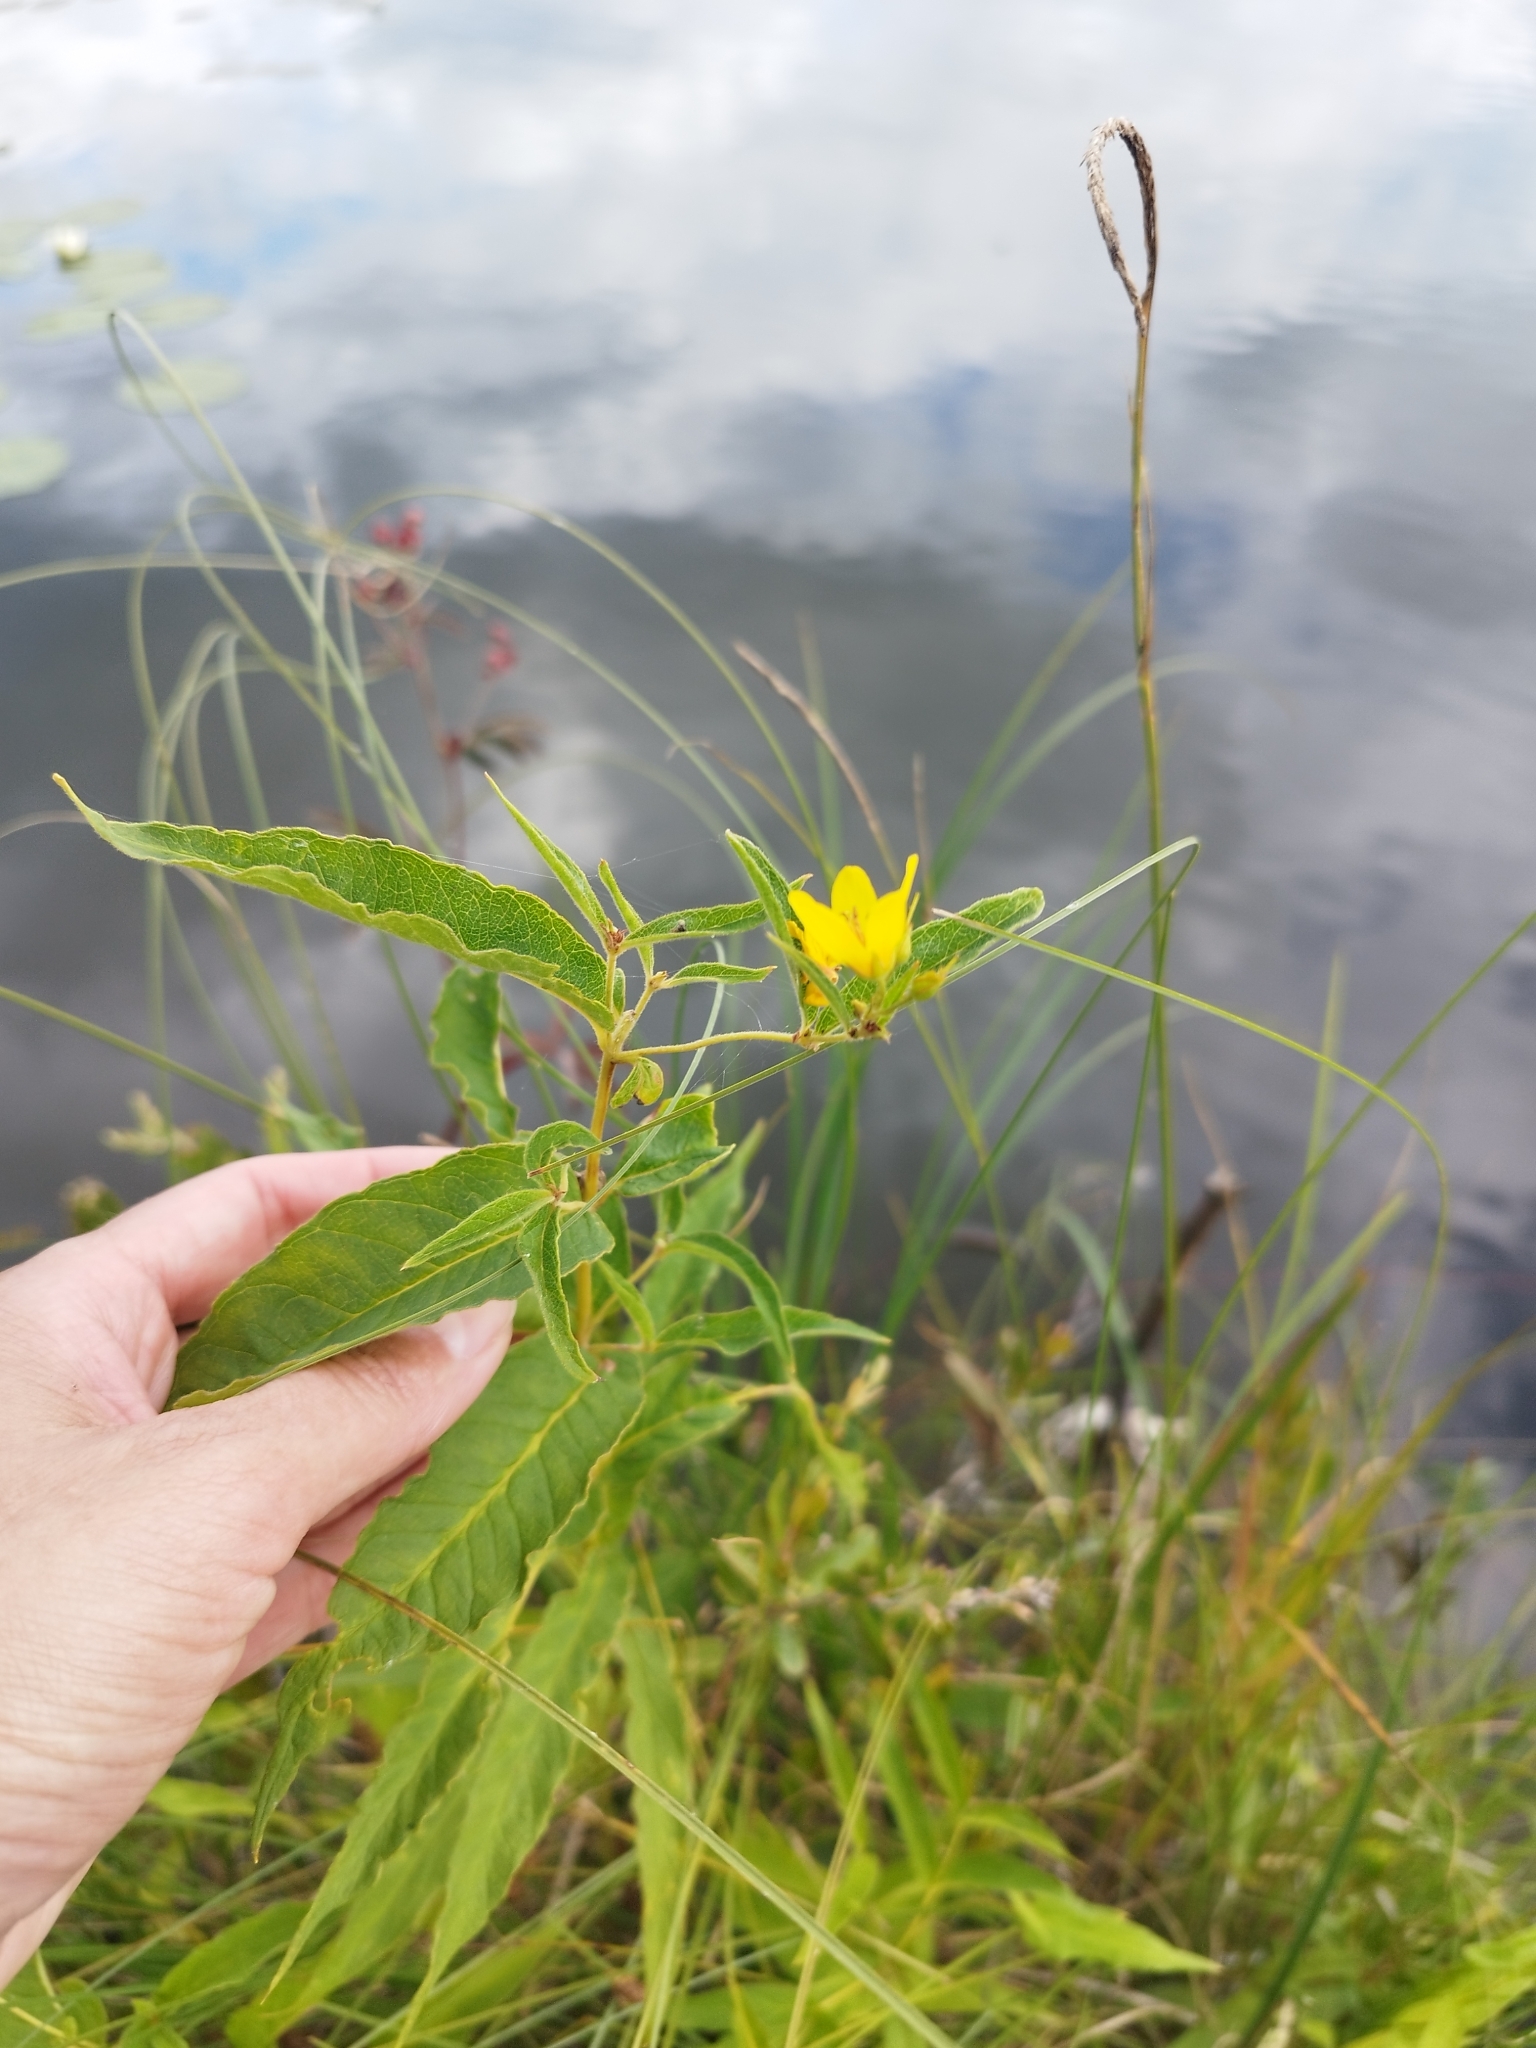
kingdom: Plantae
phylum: Tracheophyta
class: Magnoliopsida
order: Ericales
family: Primulaceae
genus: Lysimachia
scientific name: Lysimachia vulgaris
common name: Yellow loosestrife
